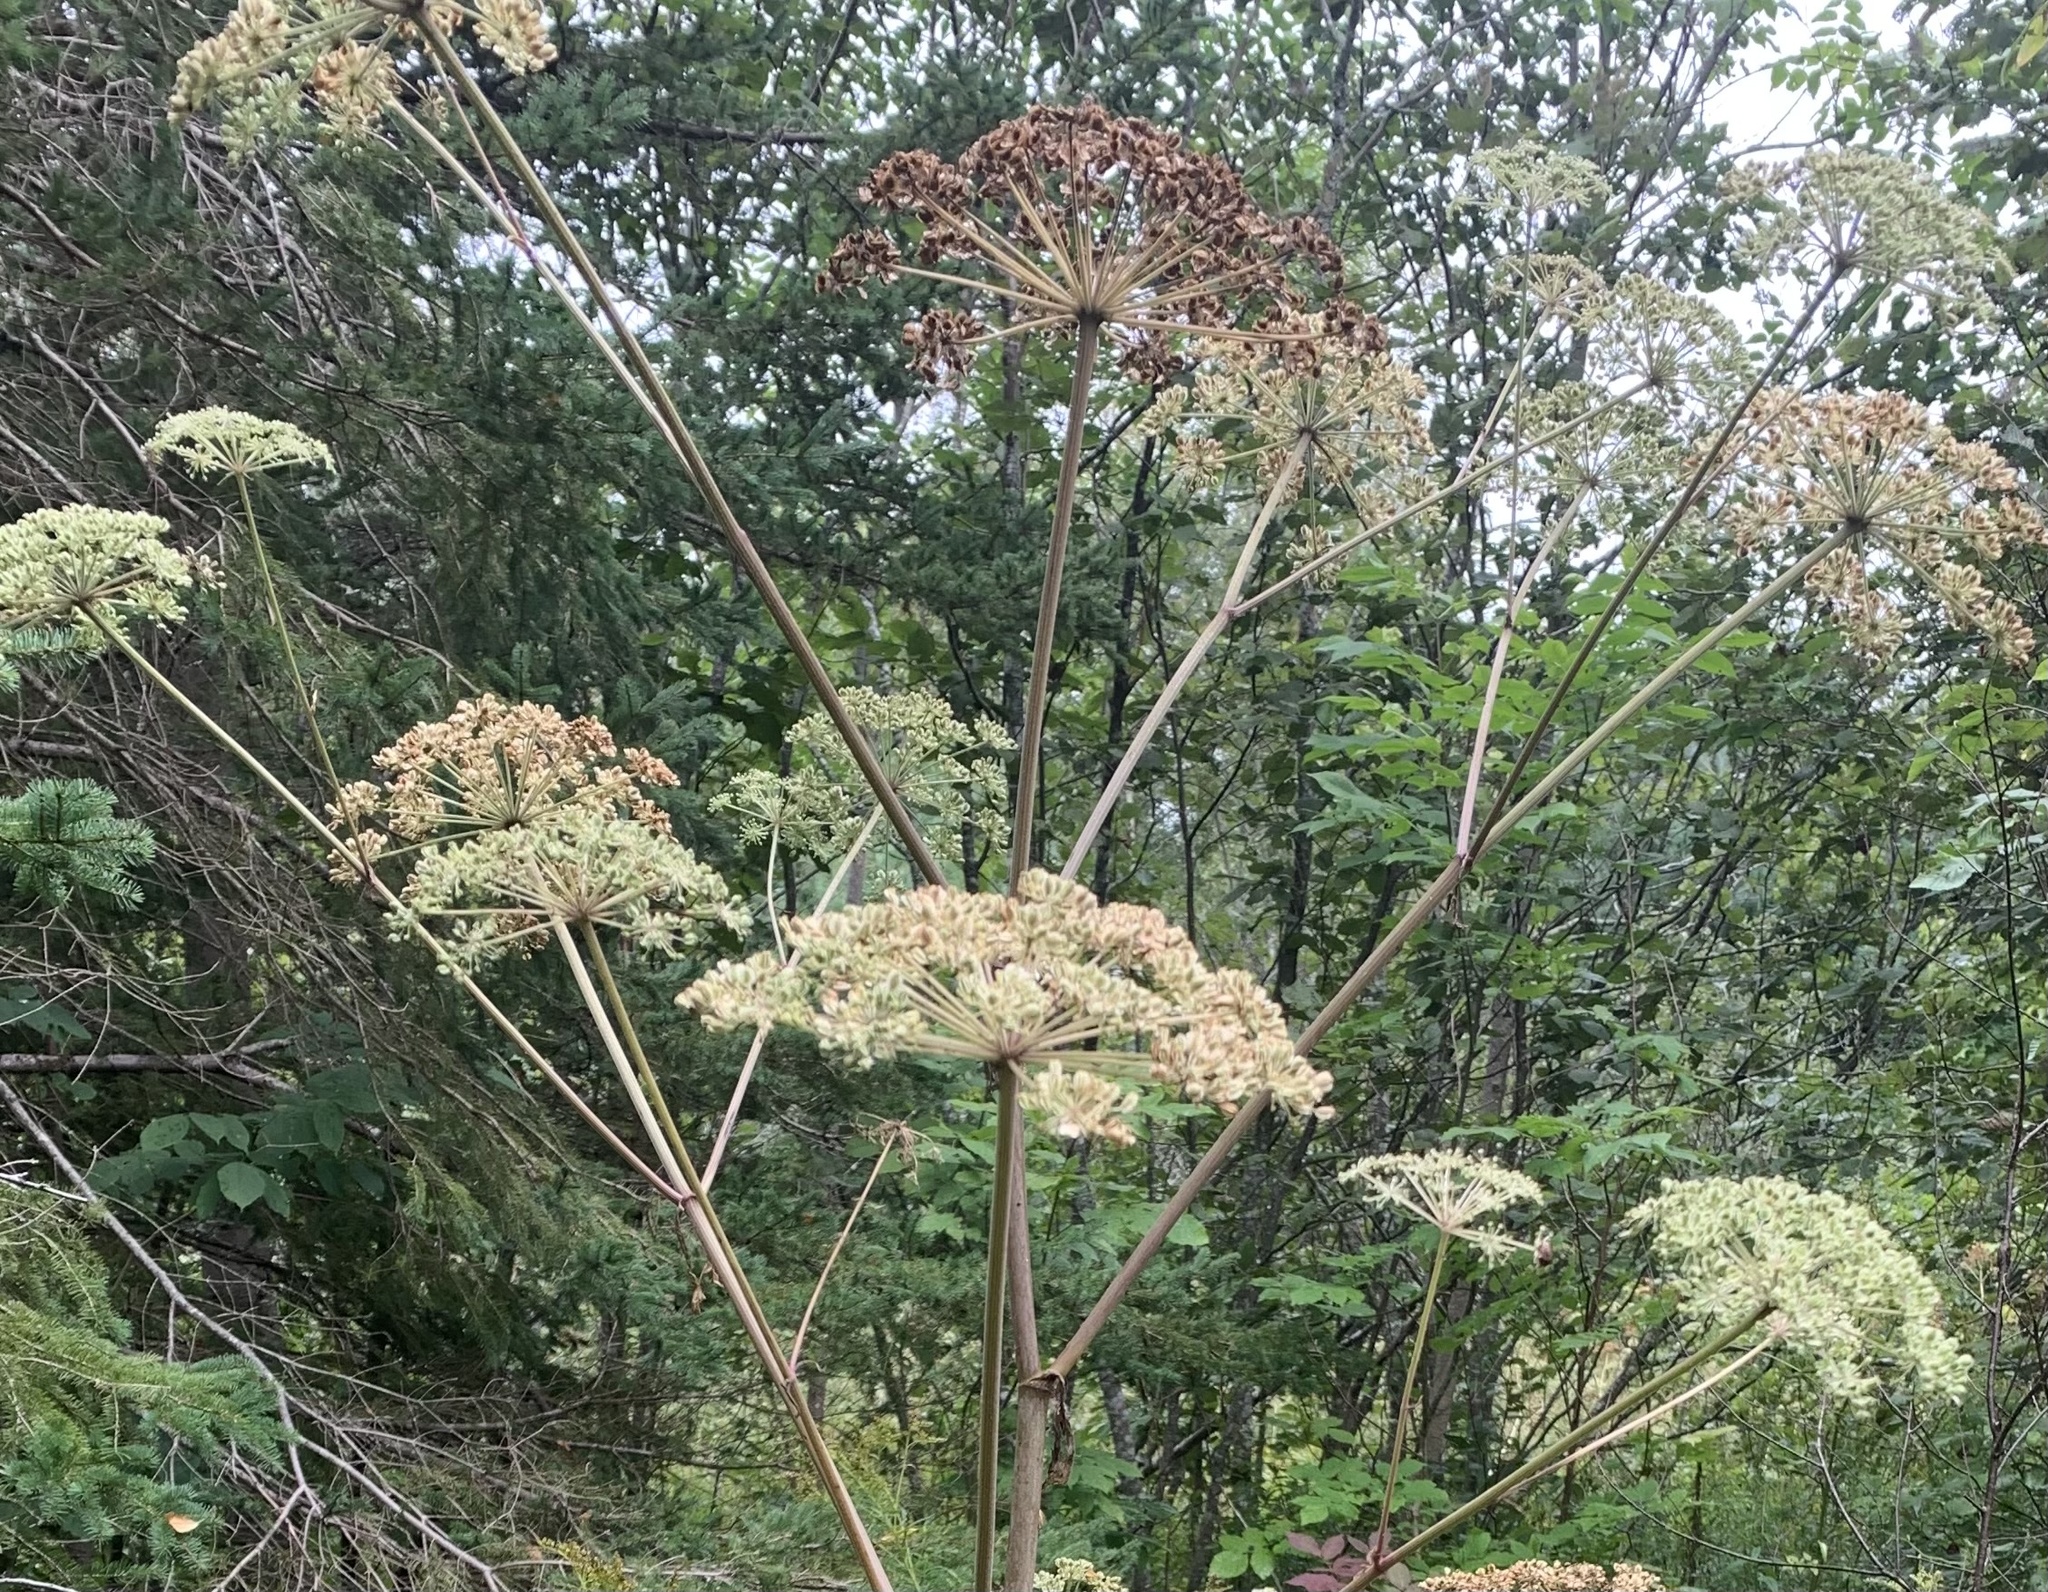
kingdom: Plantae
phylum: Tracheophyta
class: Magnoliopsida
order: Apiales
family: Apiaceae
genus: Angelica
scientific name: Angelica sylvestris
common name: Wild angelica
